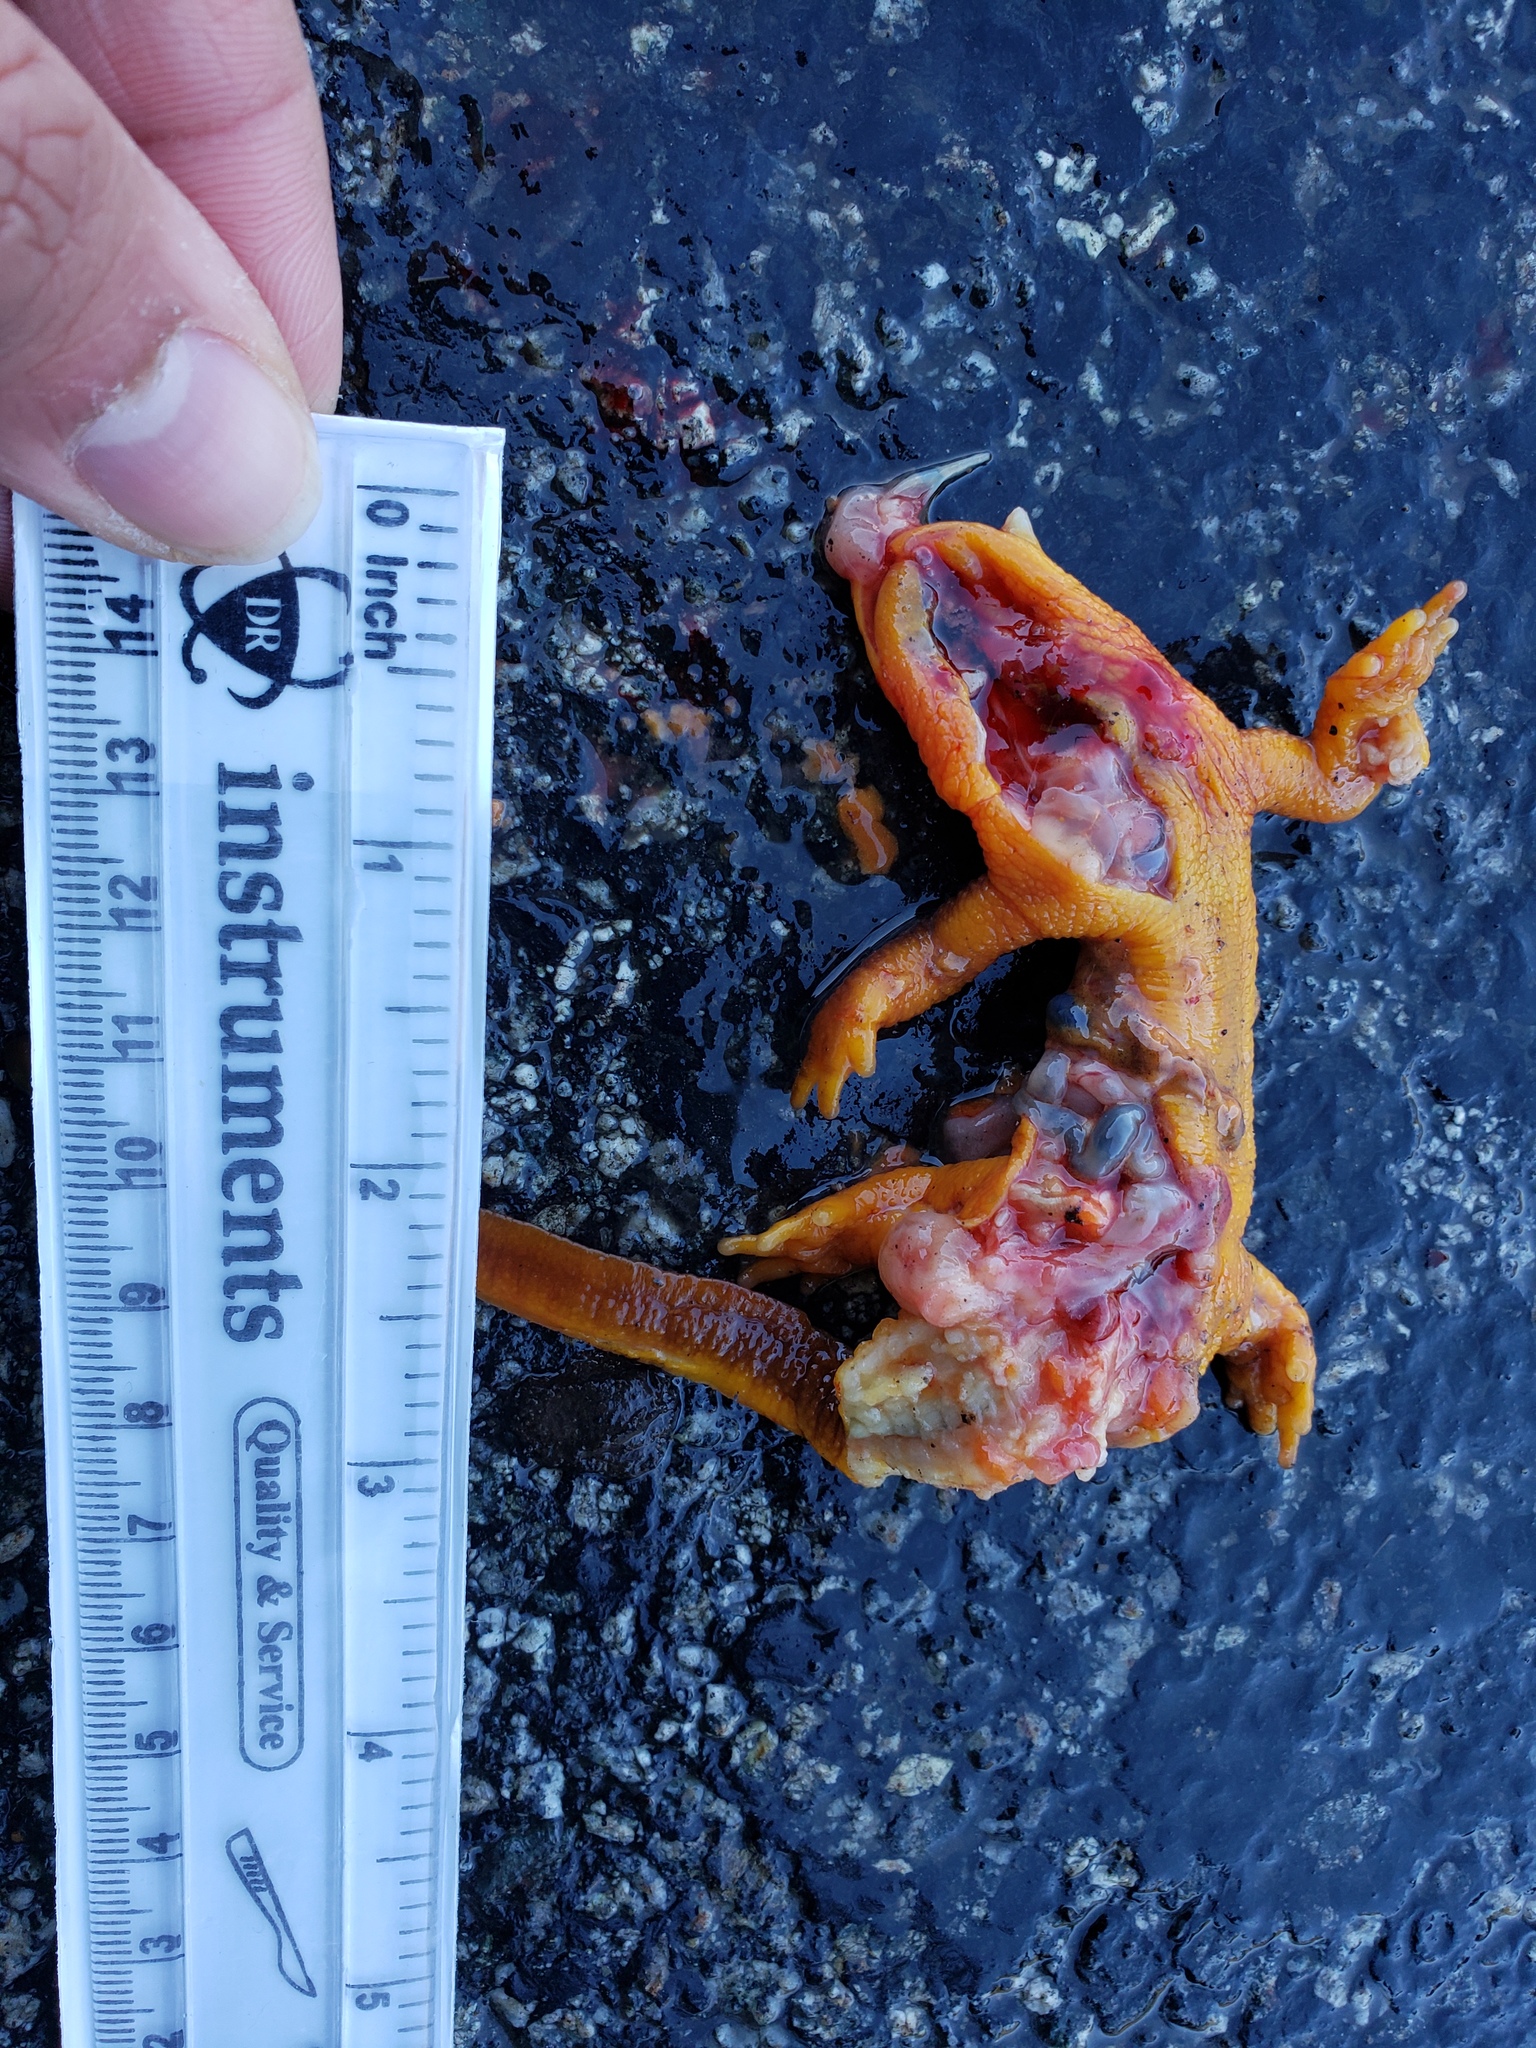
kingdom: Animalia
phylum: Chordata
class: Amphibia
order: Caudata
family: Salamandridae
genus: Taricha
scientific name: Taricha
